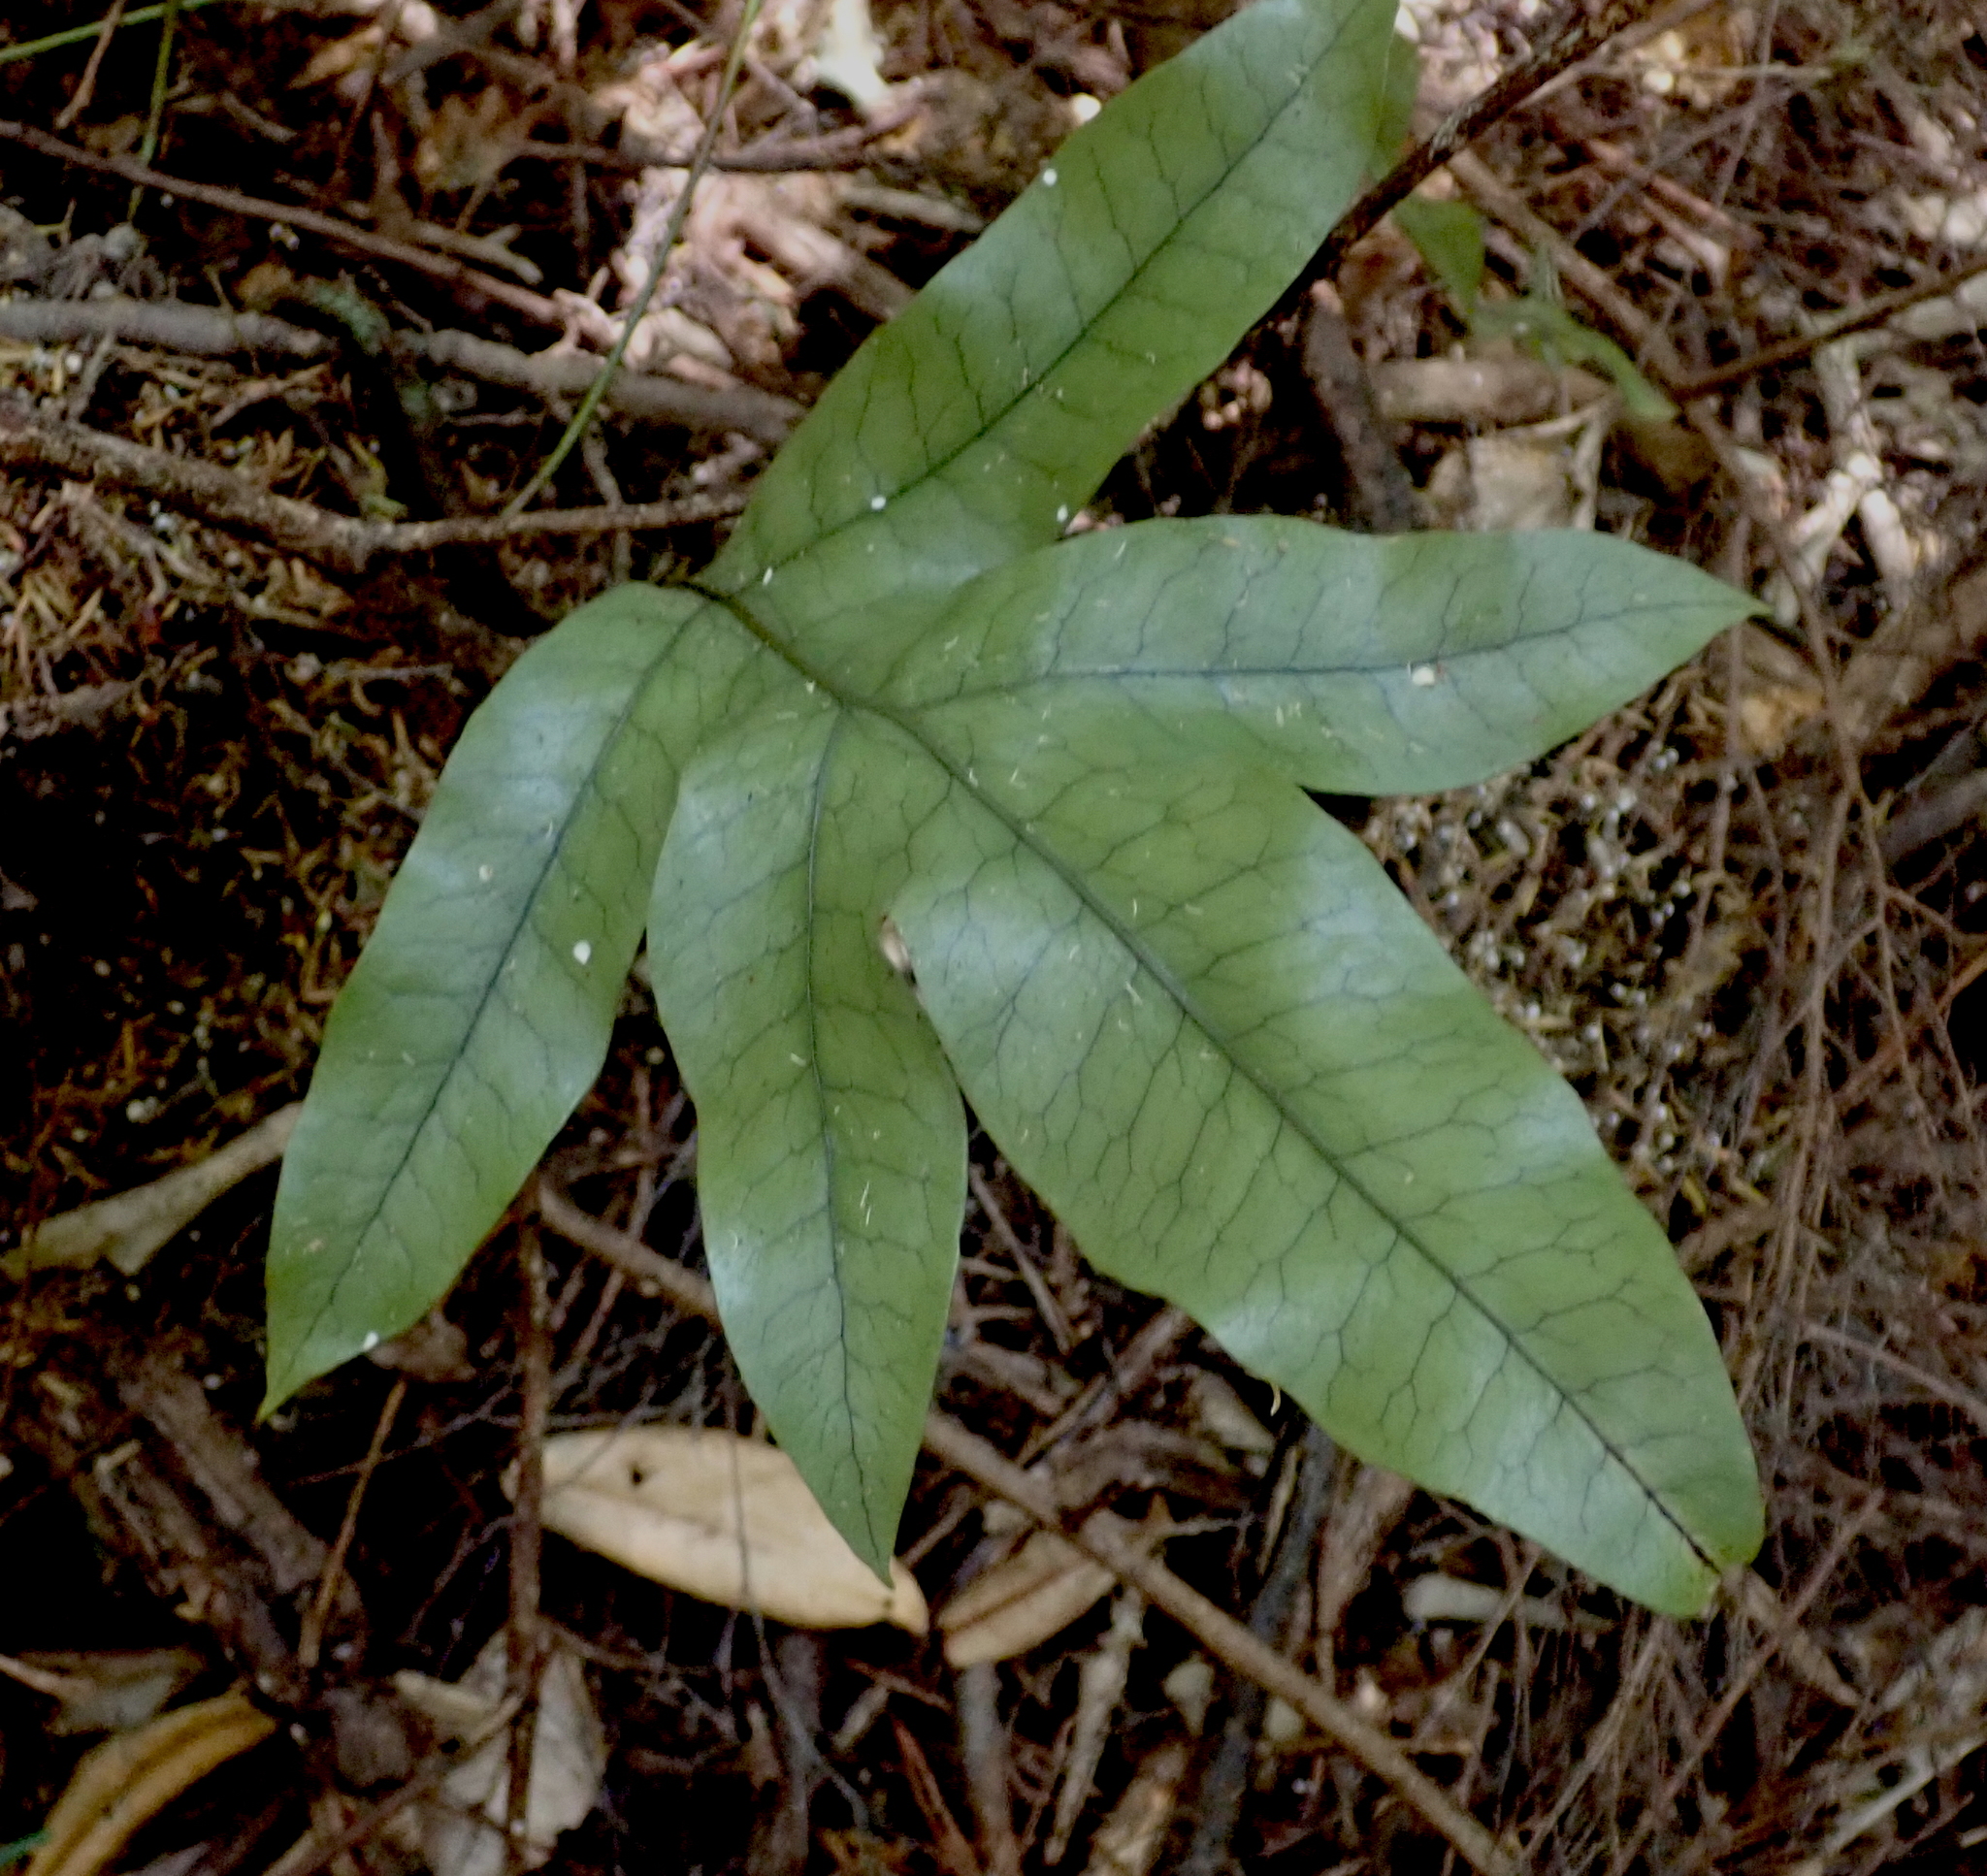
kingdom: Plantae
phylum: Tracheophyta
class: Polypodiopsida
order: Polypodiales
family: Polypodiaceae
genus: Lecanopteris
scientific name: Lecanopteris pustulata
